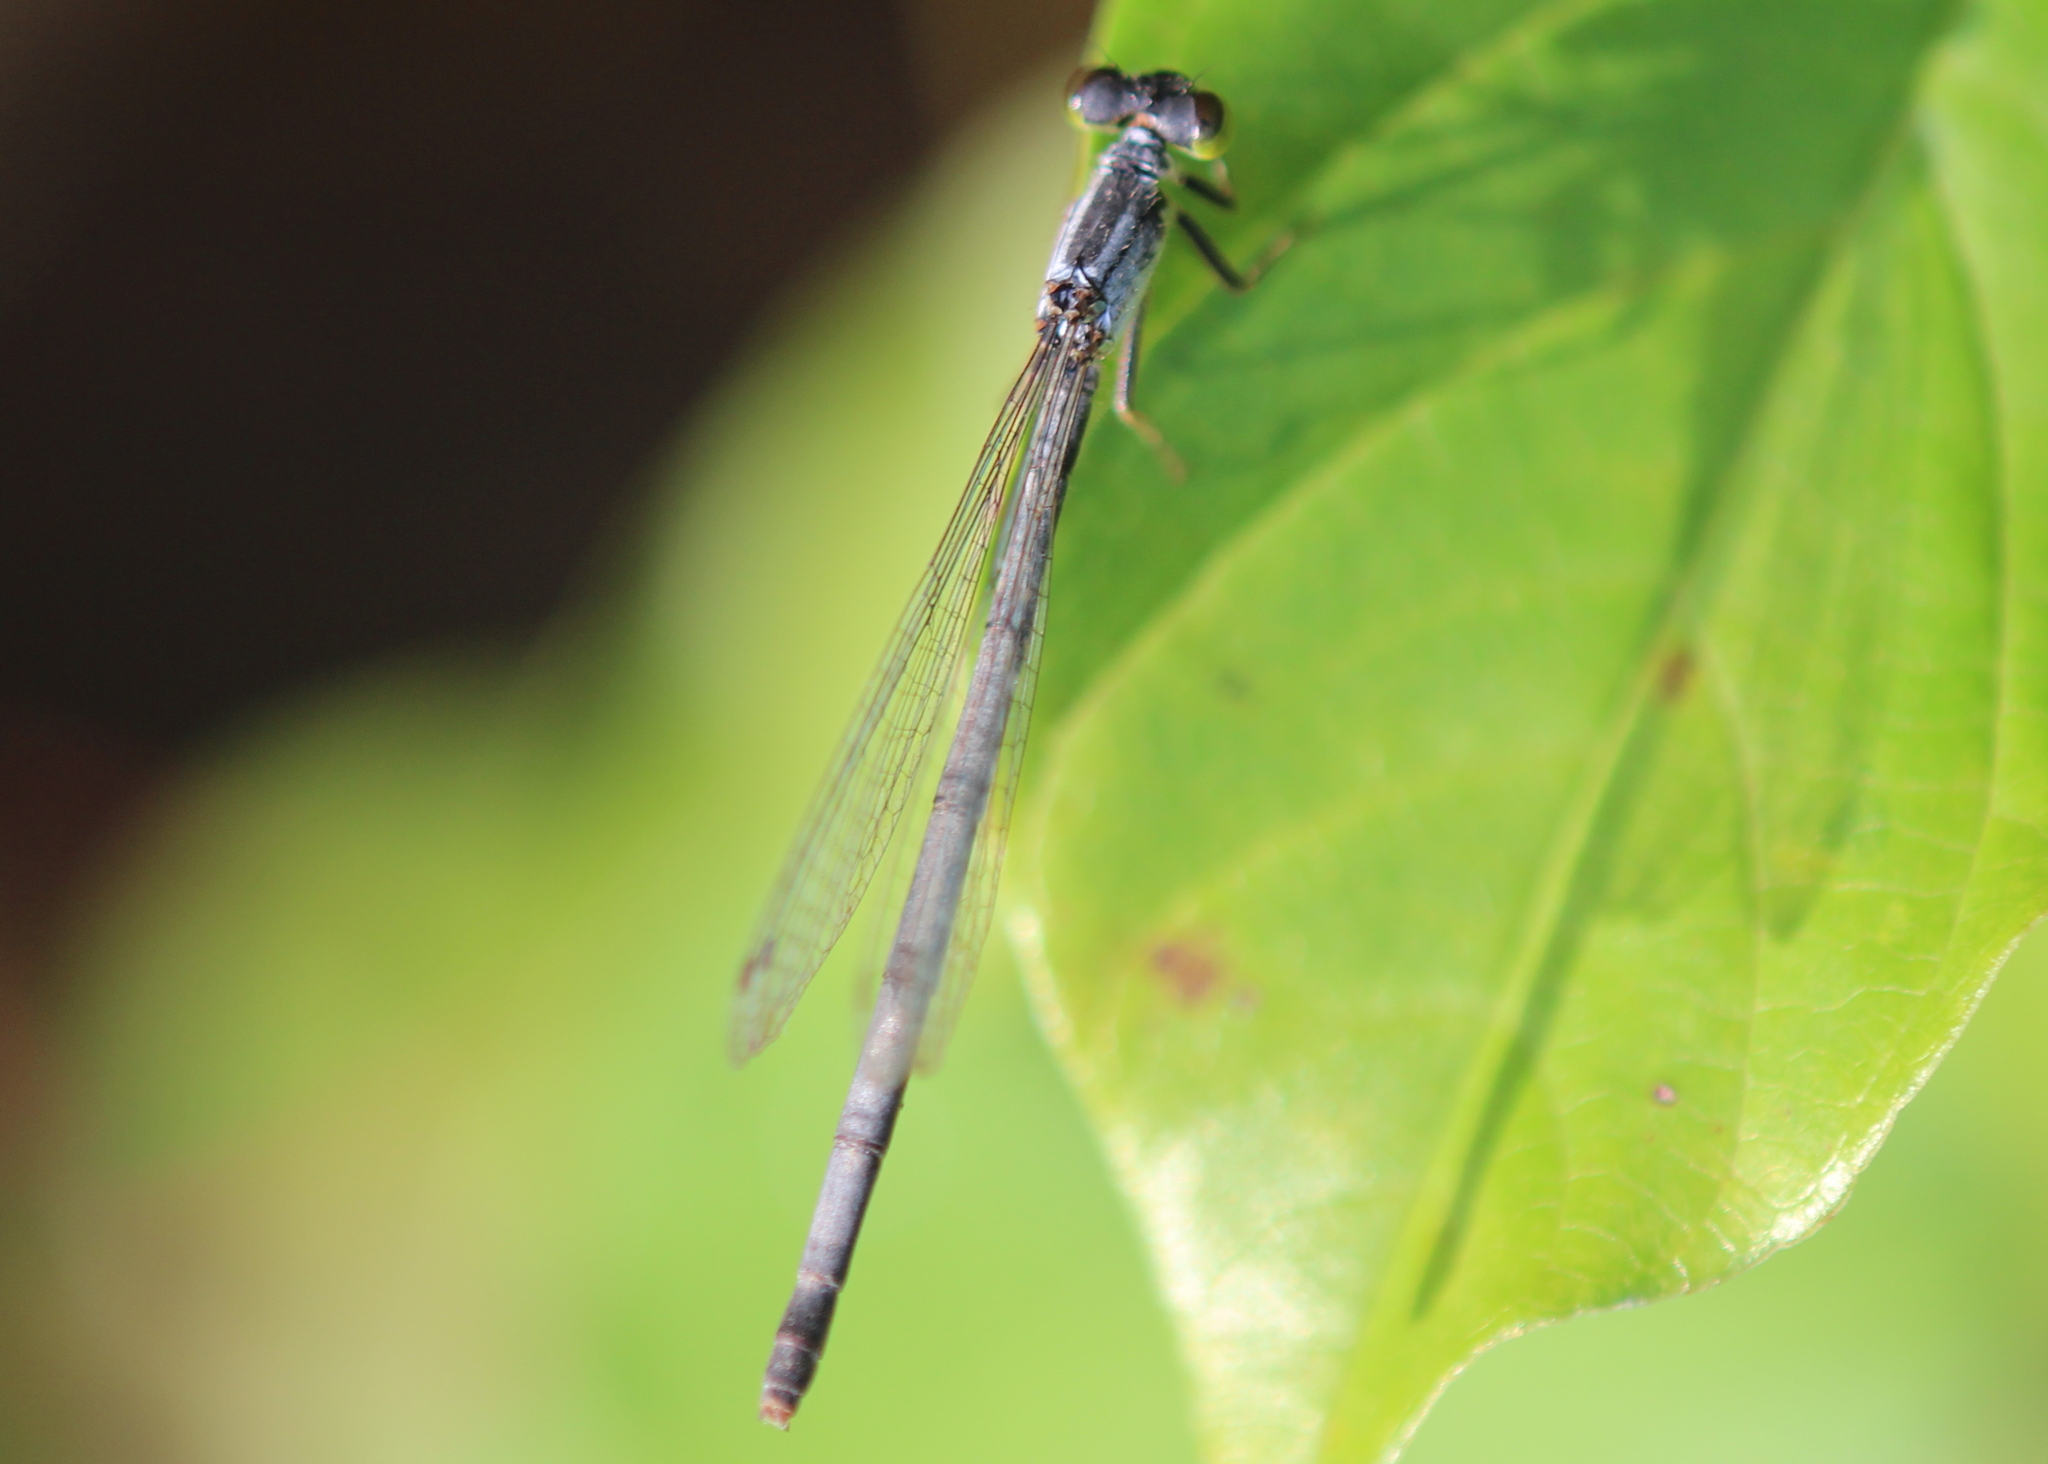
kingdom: Animalia
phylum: Arthropoda
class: Insecta
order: Odonata
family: Coenagrionidae
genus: Ischnura
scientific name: Ischnura verticalis
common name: Eastern forktail
